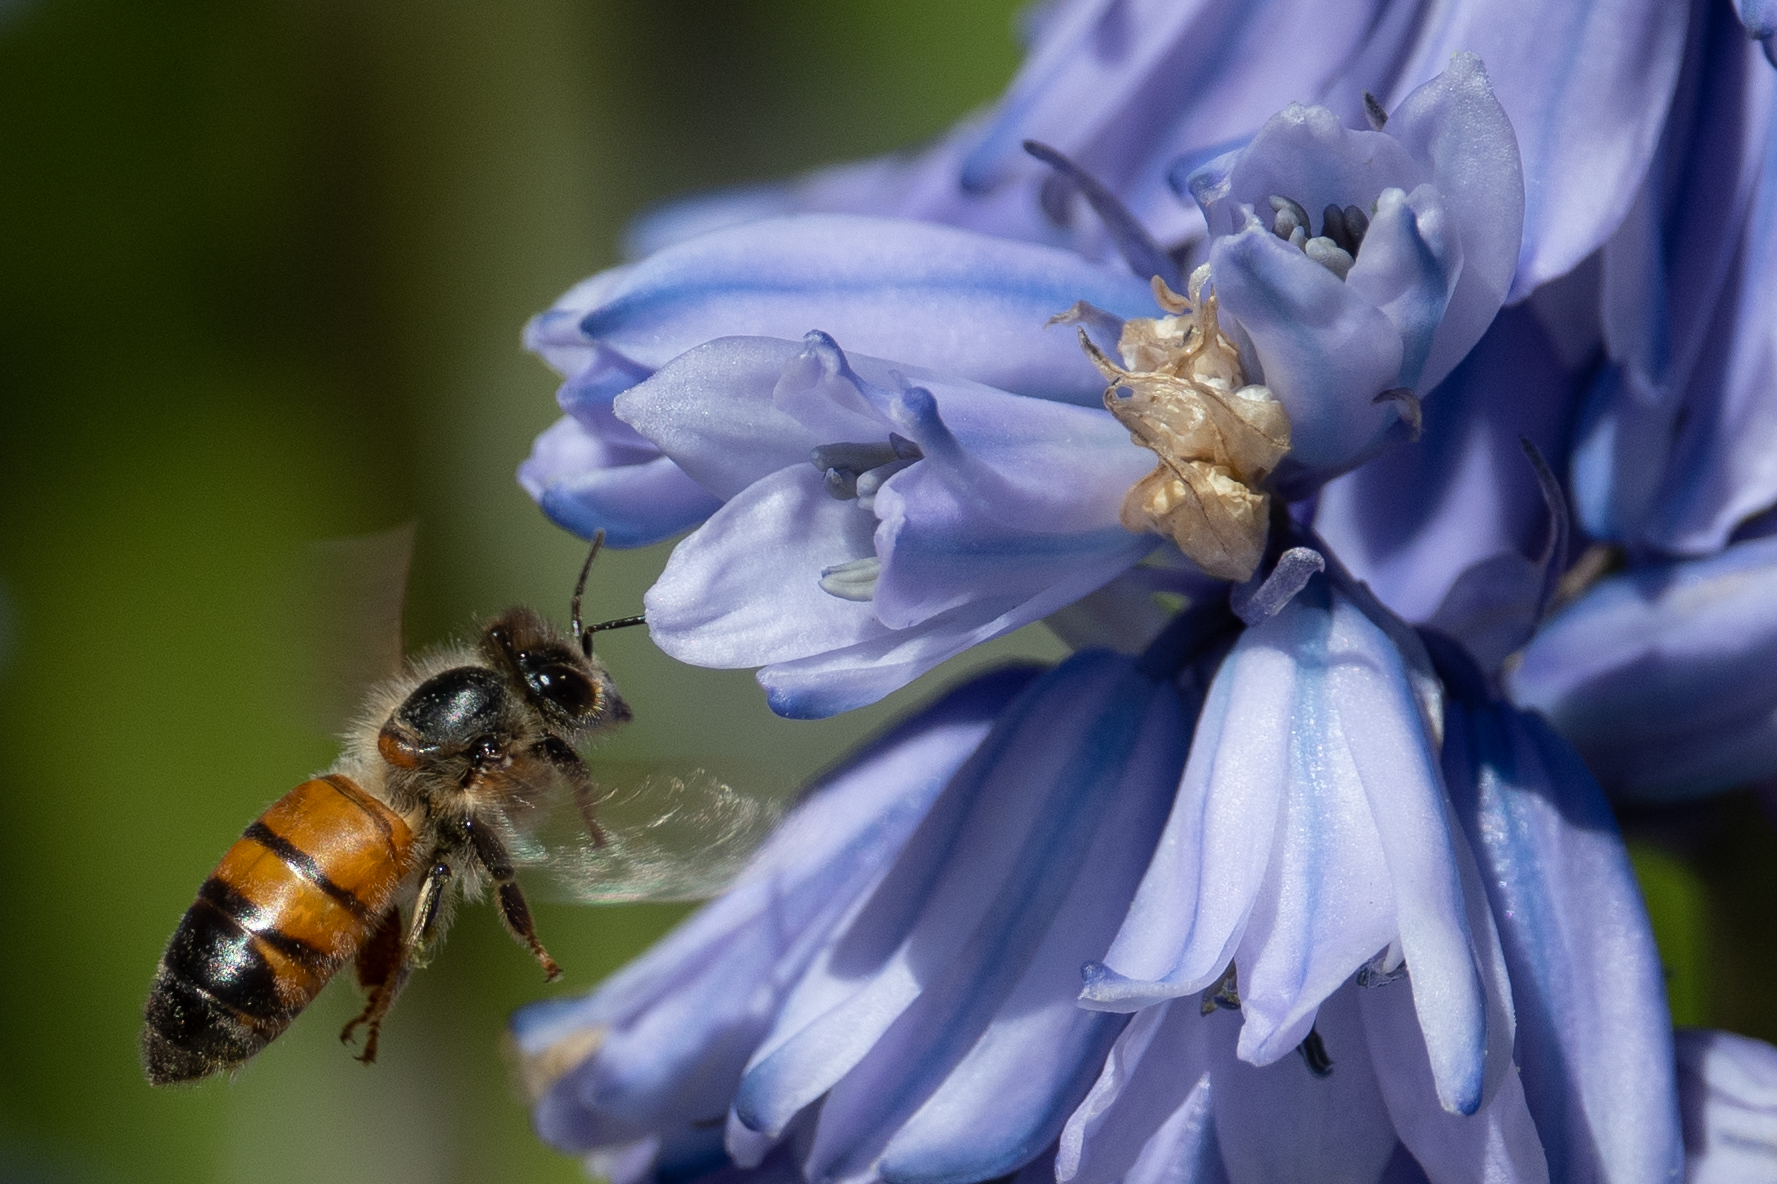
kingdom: Animalia
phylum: Arthropoda
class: Insecta
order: Hymenoptera
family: Apidae
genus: Apis
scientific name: Apis mellifera
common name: Honey bee
